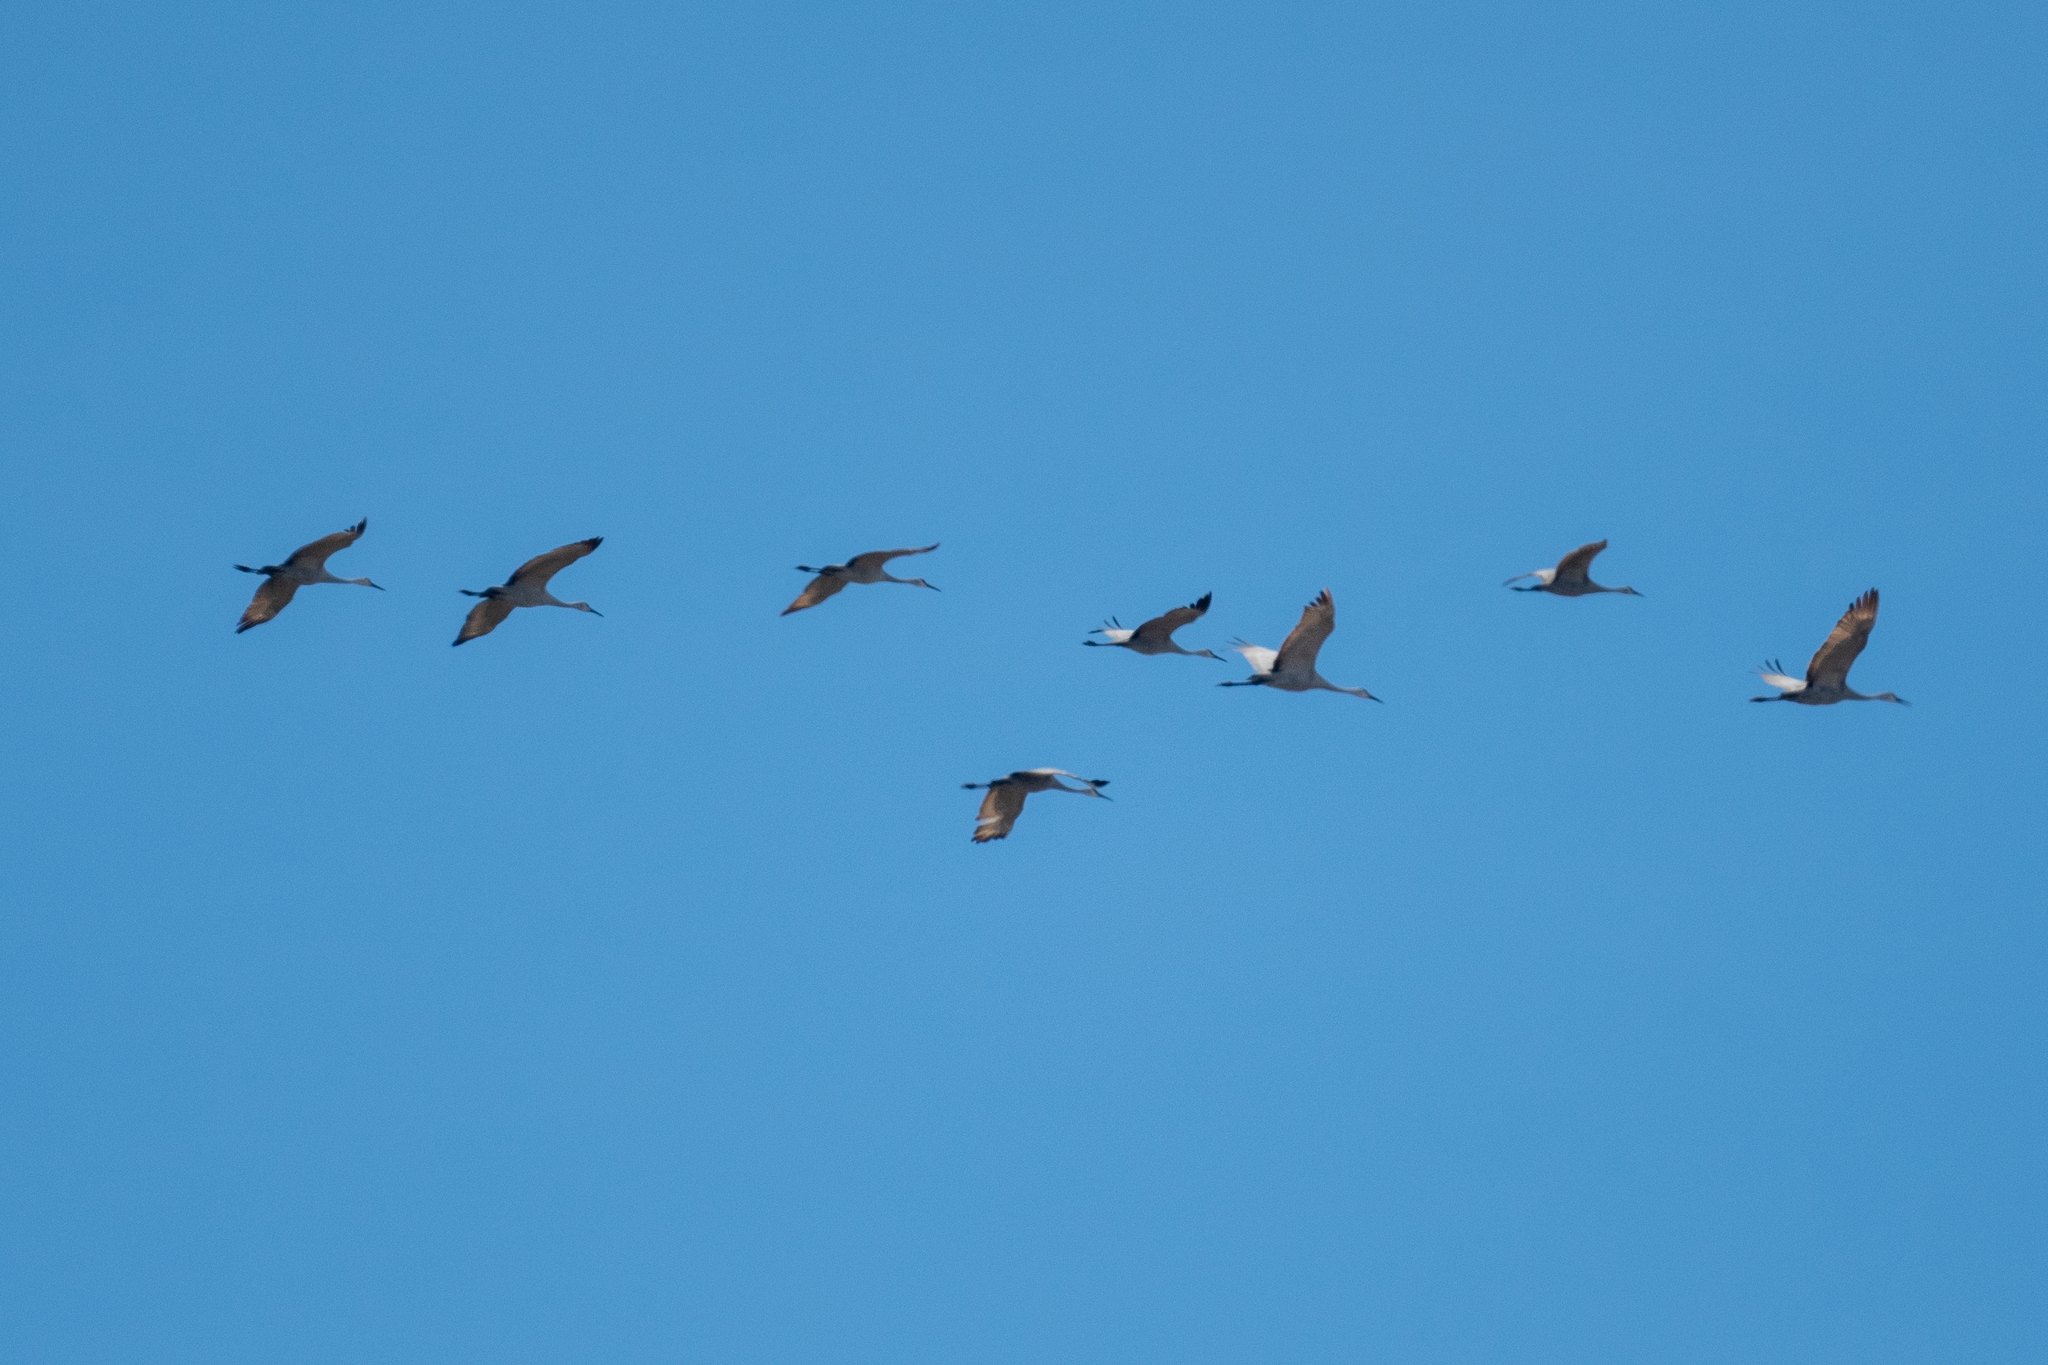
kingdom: Animalia
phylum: Chordata
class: Aves
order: Gruiformes
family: Gruidae
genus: Grus
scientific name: Grus canadensis
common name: Sandhill crane
